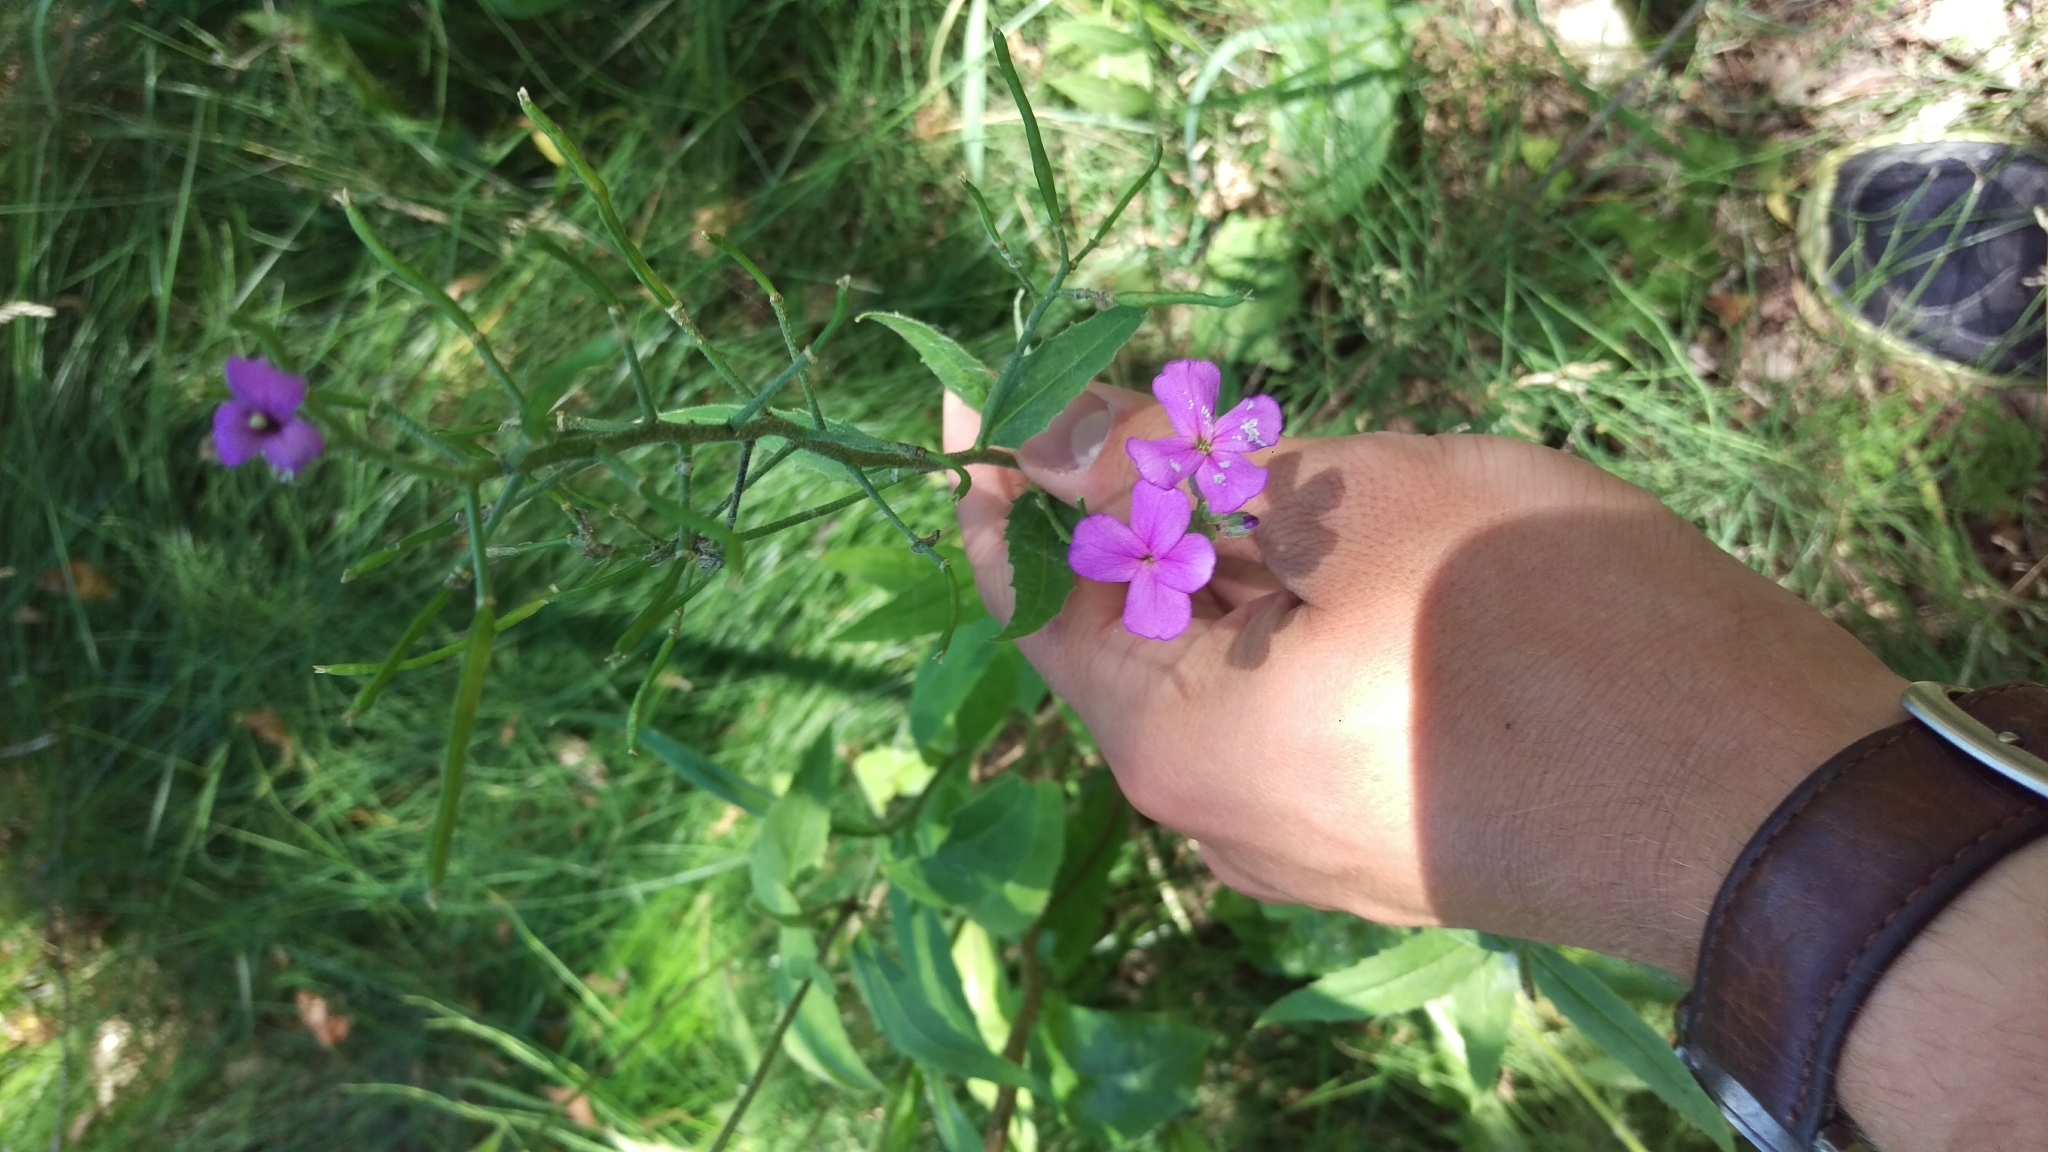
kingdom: Plantae
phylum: Tracheophyta
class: Magnoliopsida
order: Brassicales
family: Brassicaceae
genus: Hesperis
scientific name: Hesperis matronalis
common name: Dame's-violet
